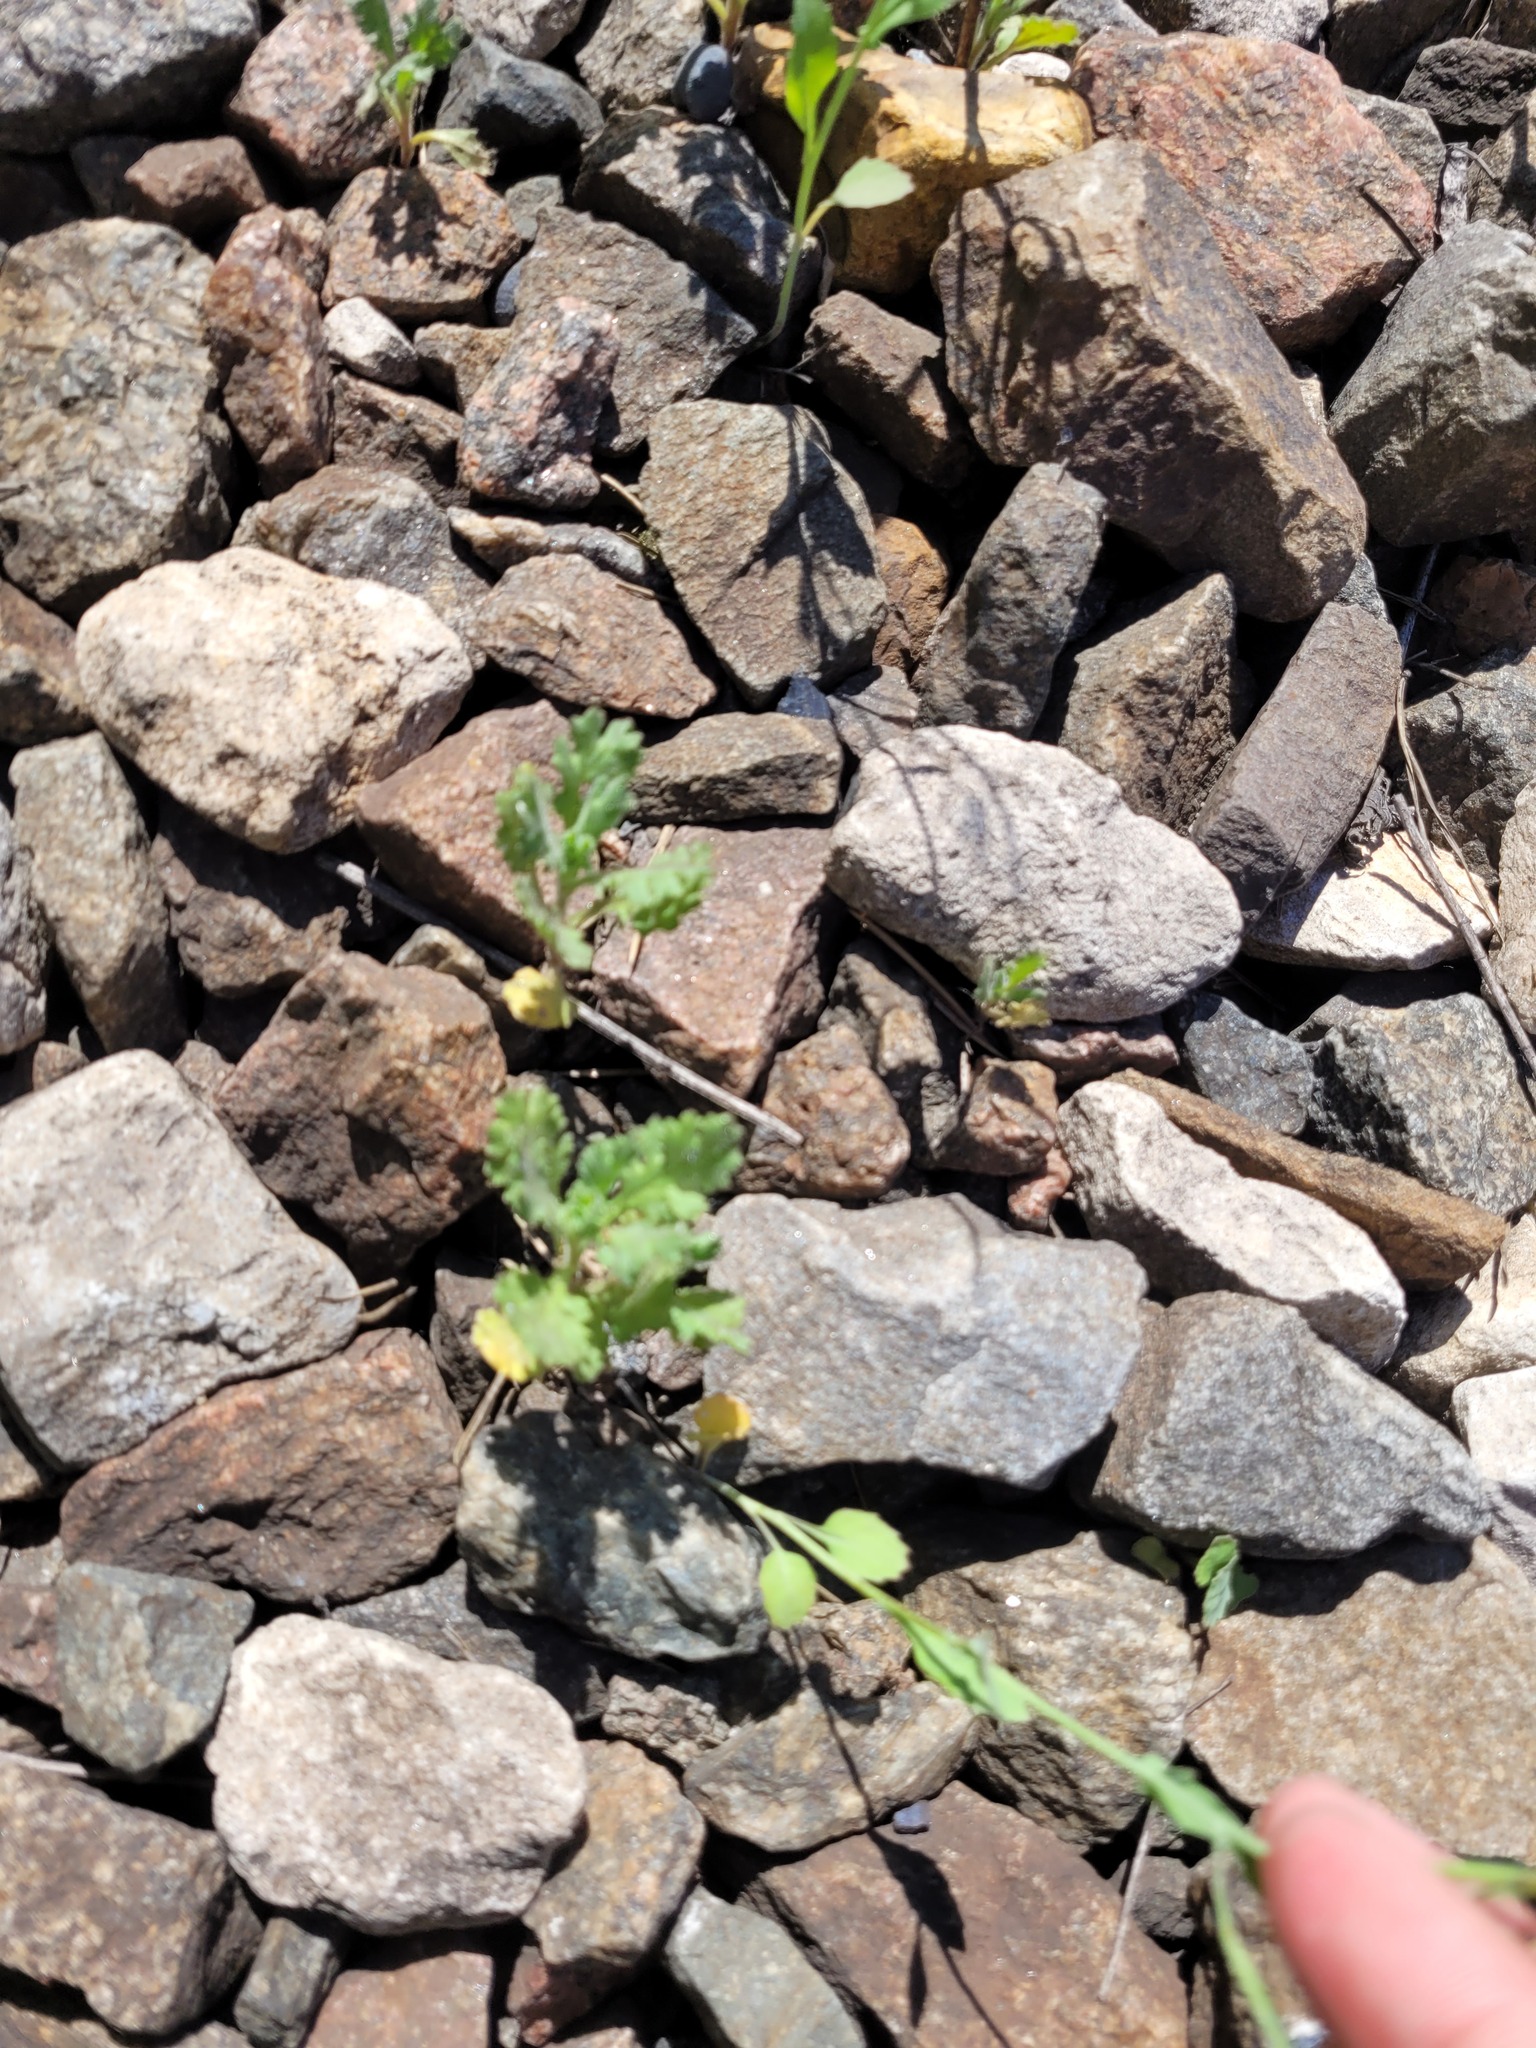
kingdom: Plantae
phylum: Tracheophyta
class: Magnoliopsida
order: Asterales
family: Asteraceae
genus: Senecio
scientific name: Senecio viscosus
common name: Sticky groundsel
